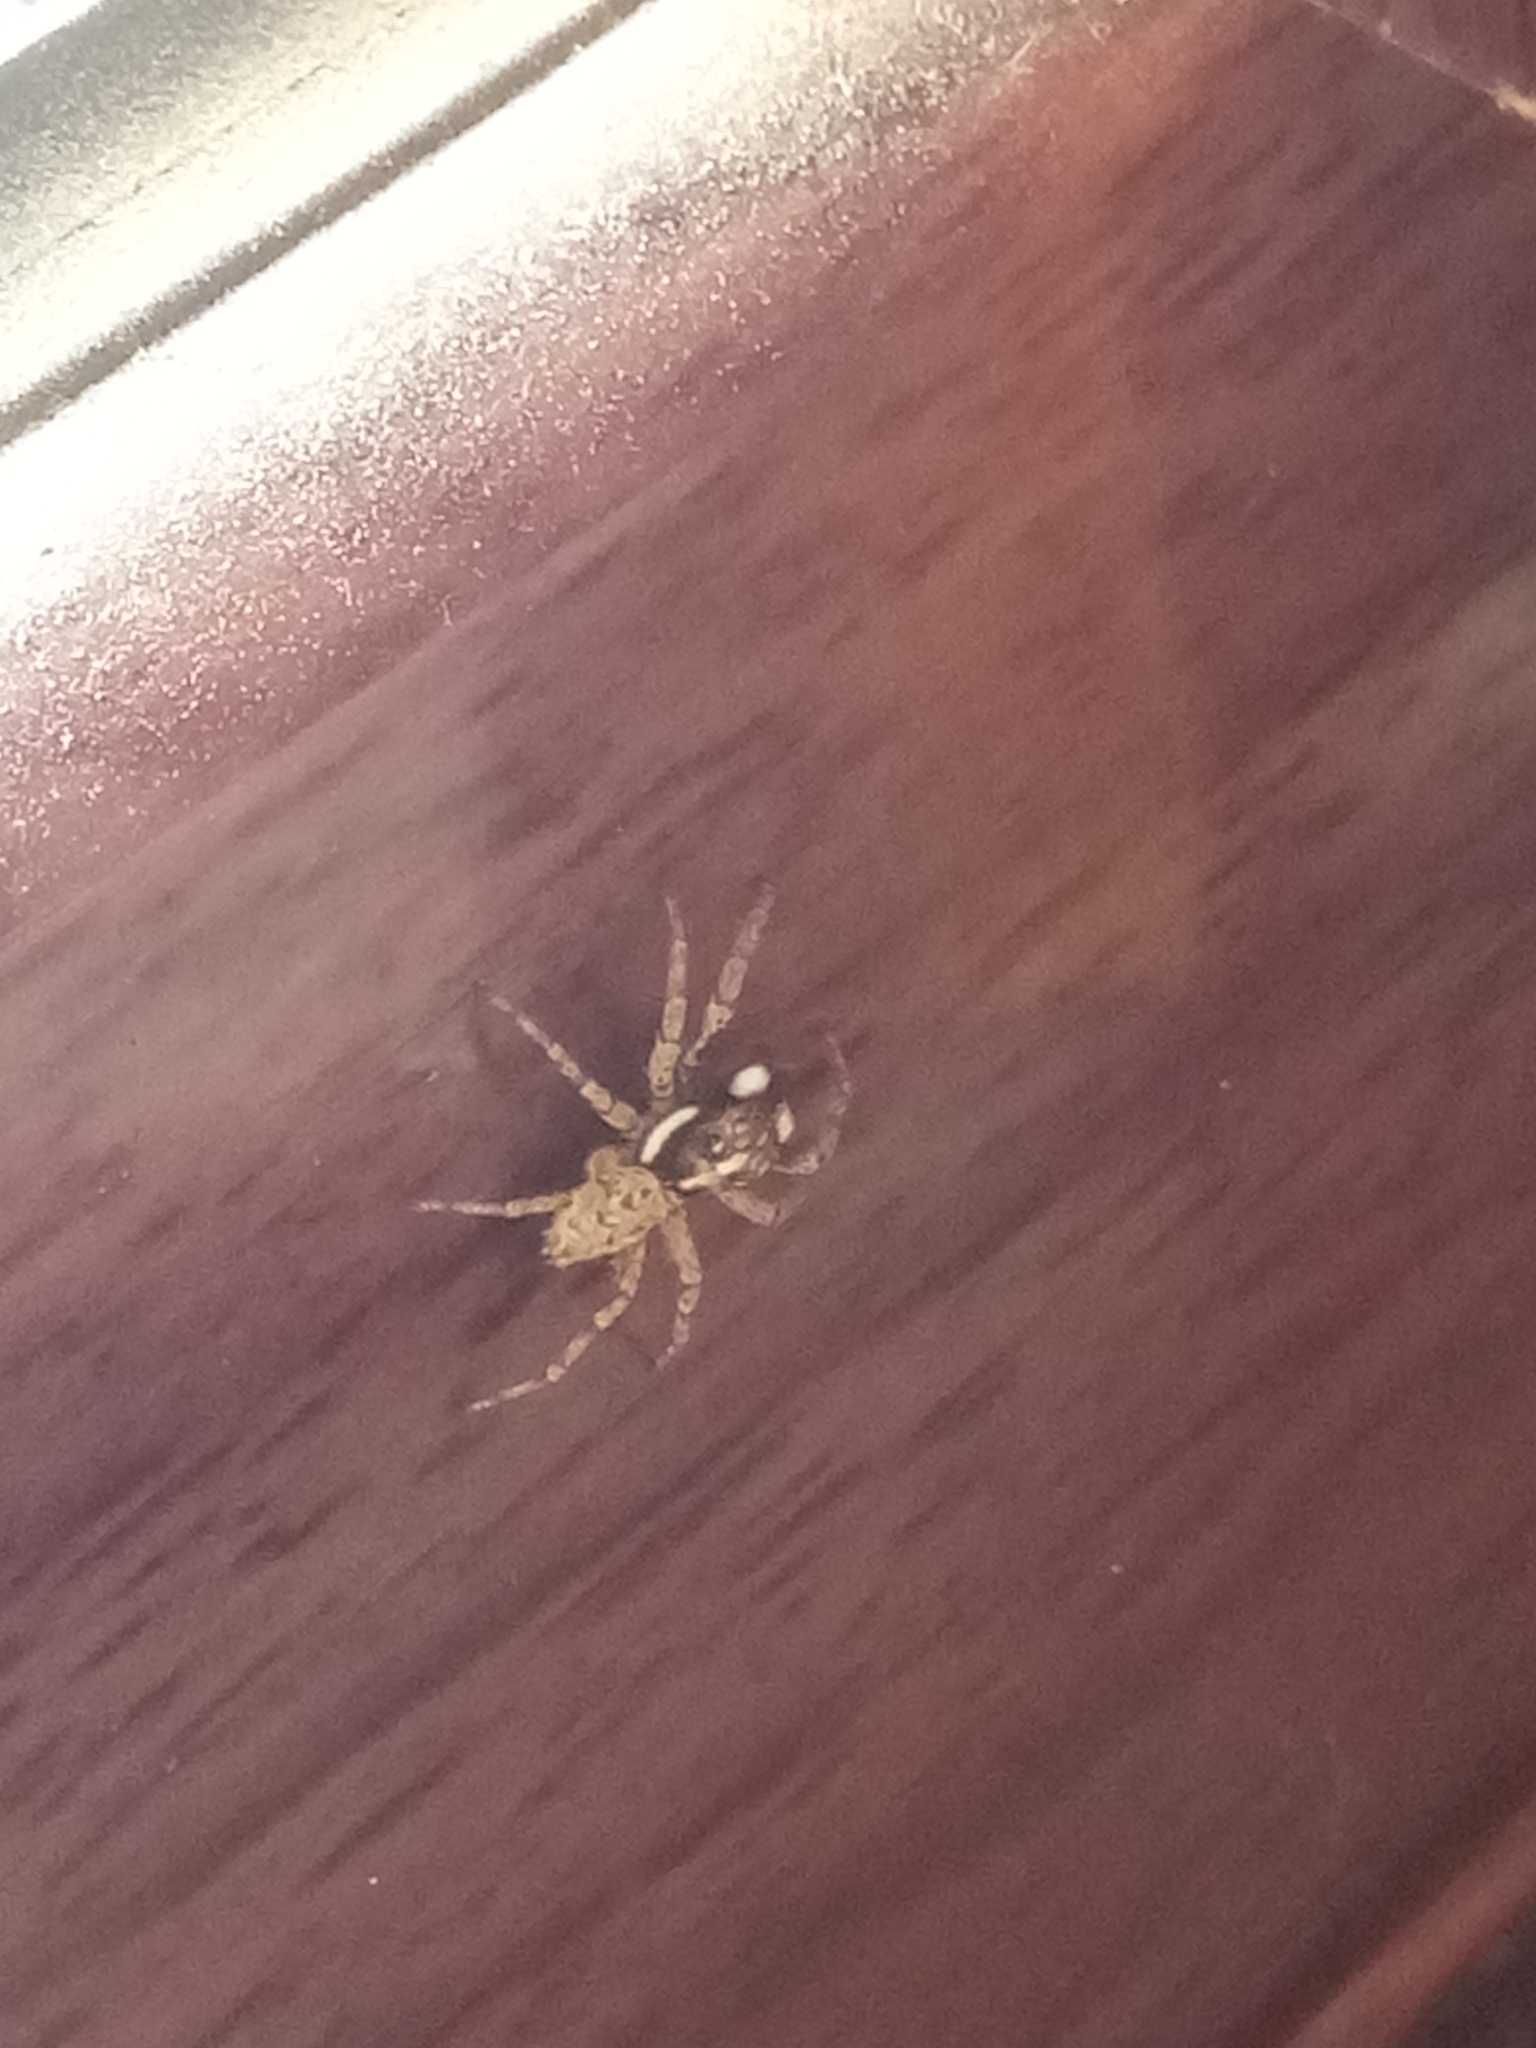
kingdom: Animalia
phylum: Arthropoda
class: Arachnida
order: Araneae
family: Salticidae
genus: Menemerus
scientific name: Menemerus semilimbatus
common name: Jumping spider
